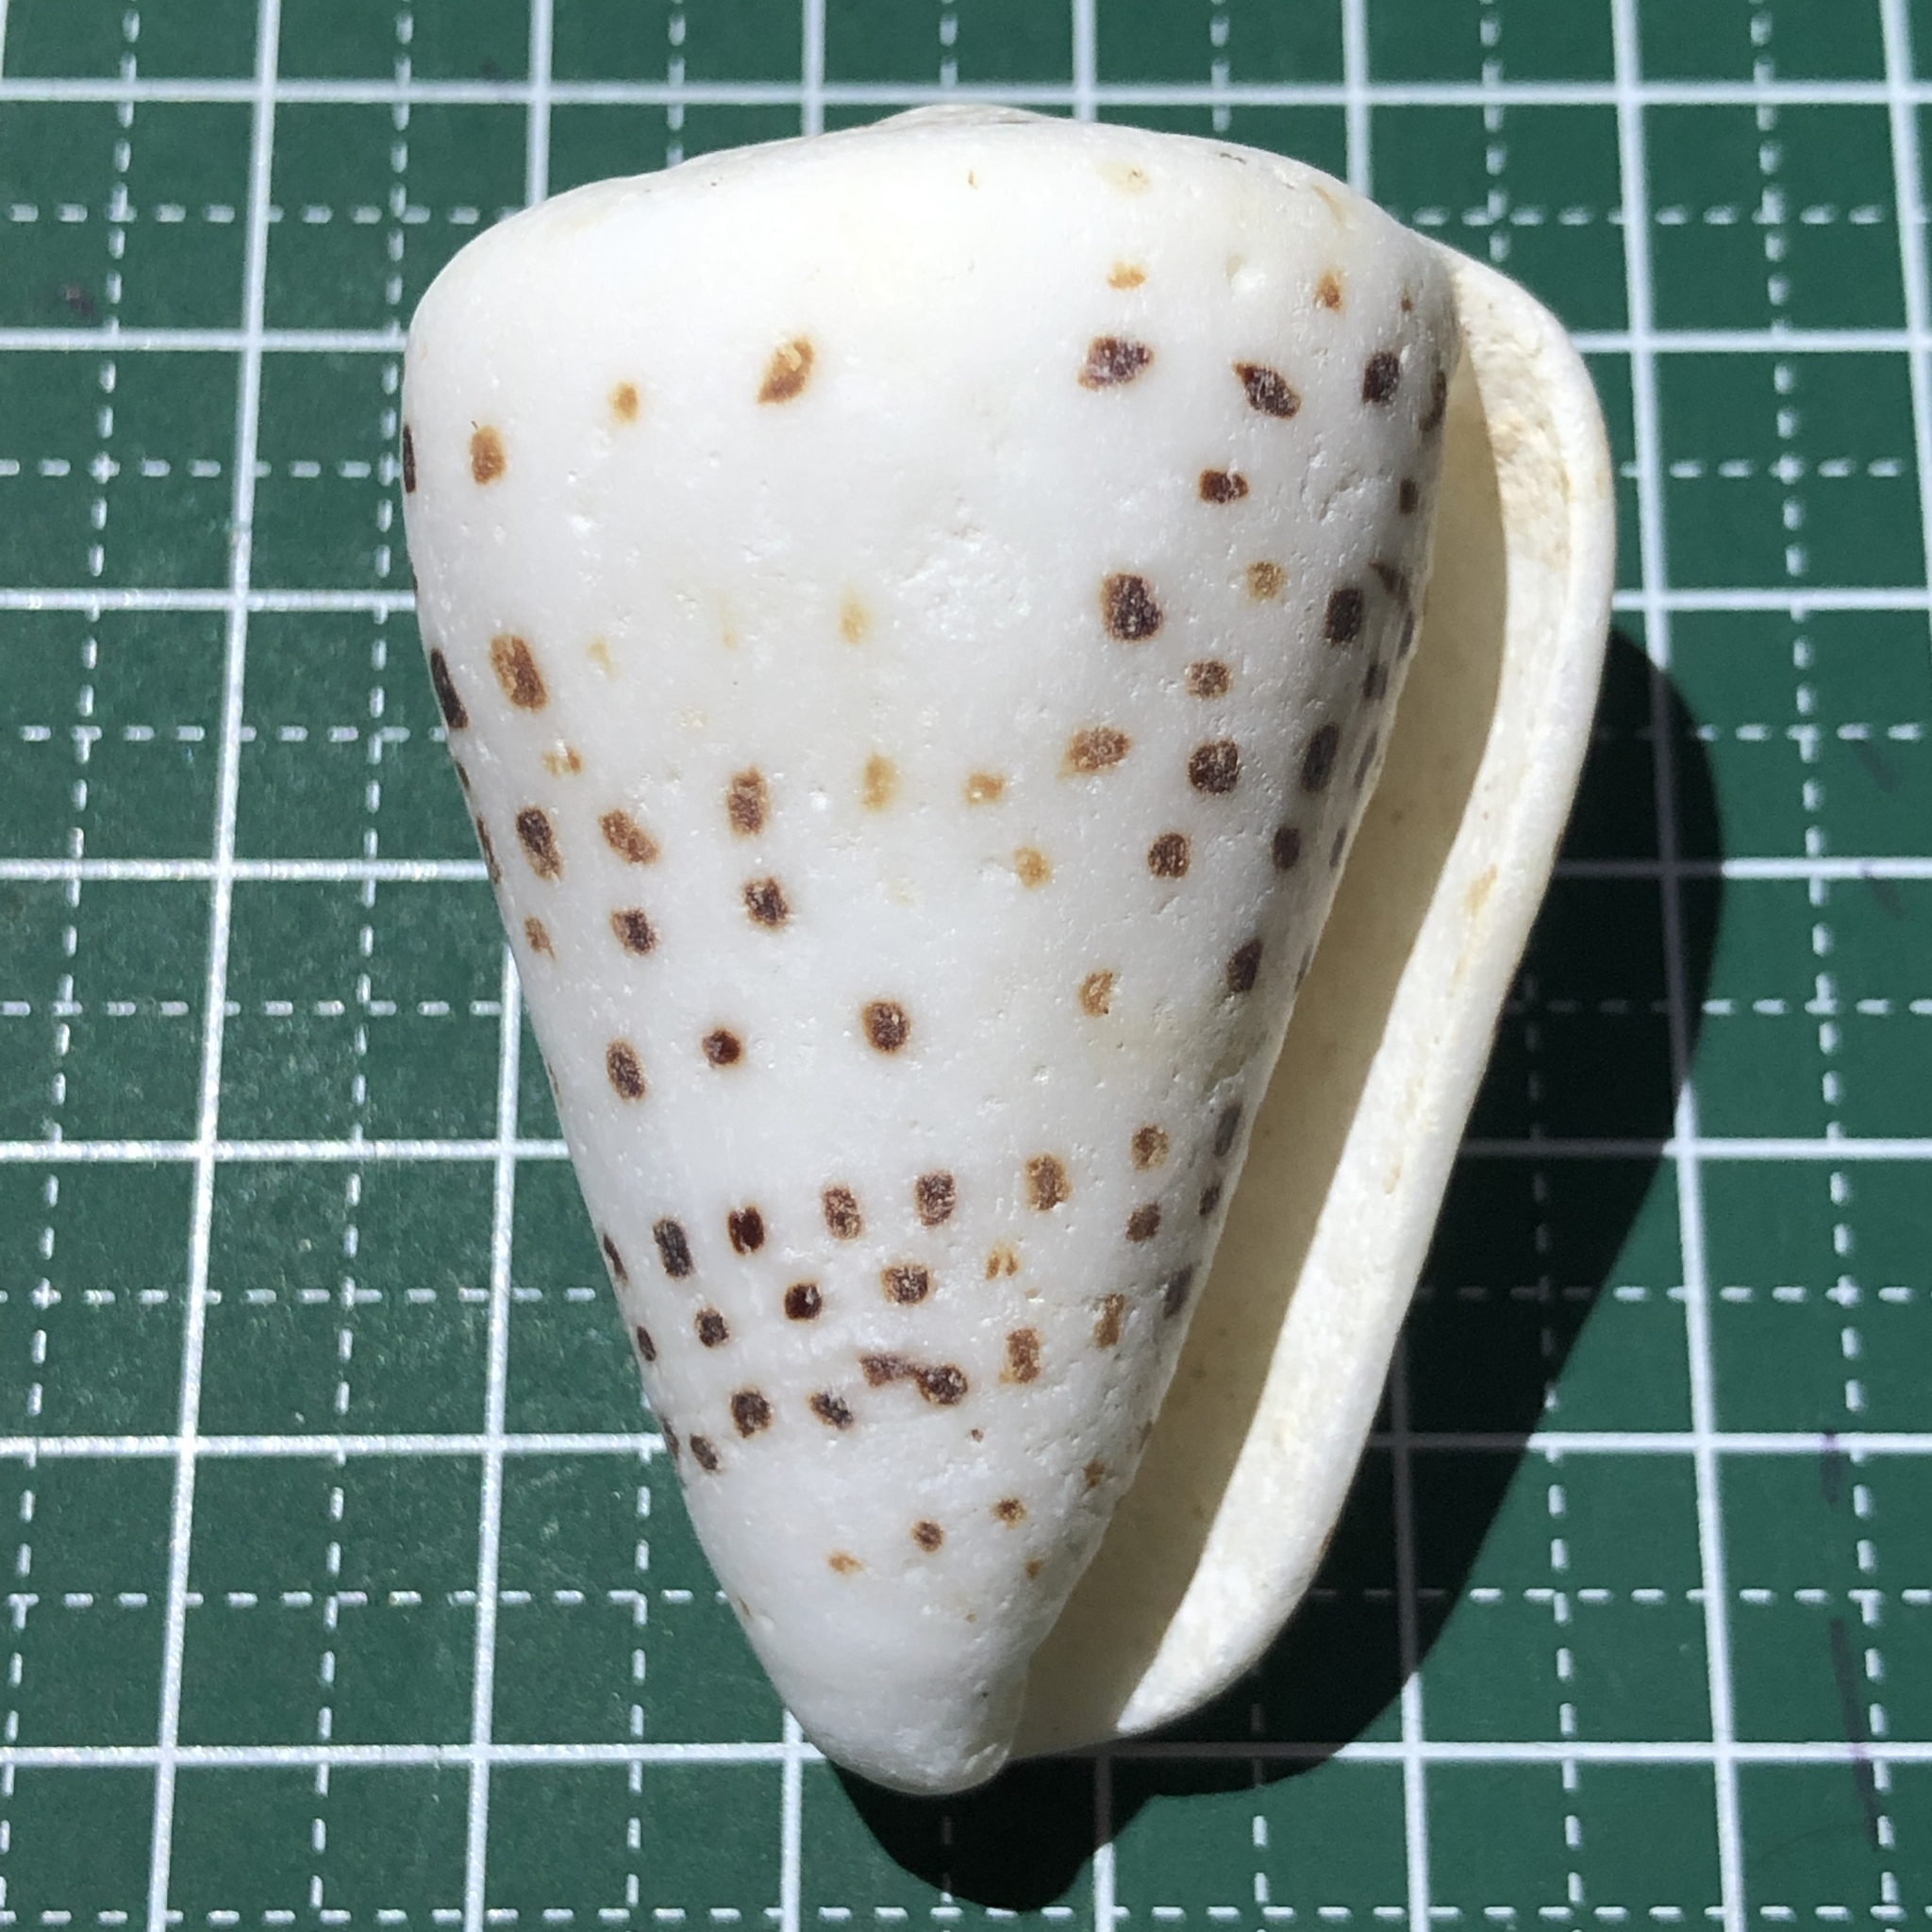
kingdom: Animalia
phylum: Mollusca
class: Gastropoda
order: Neogastropoda
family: Conidae
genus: Conus
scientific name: Conus eburneus
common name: Ivory cone
